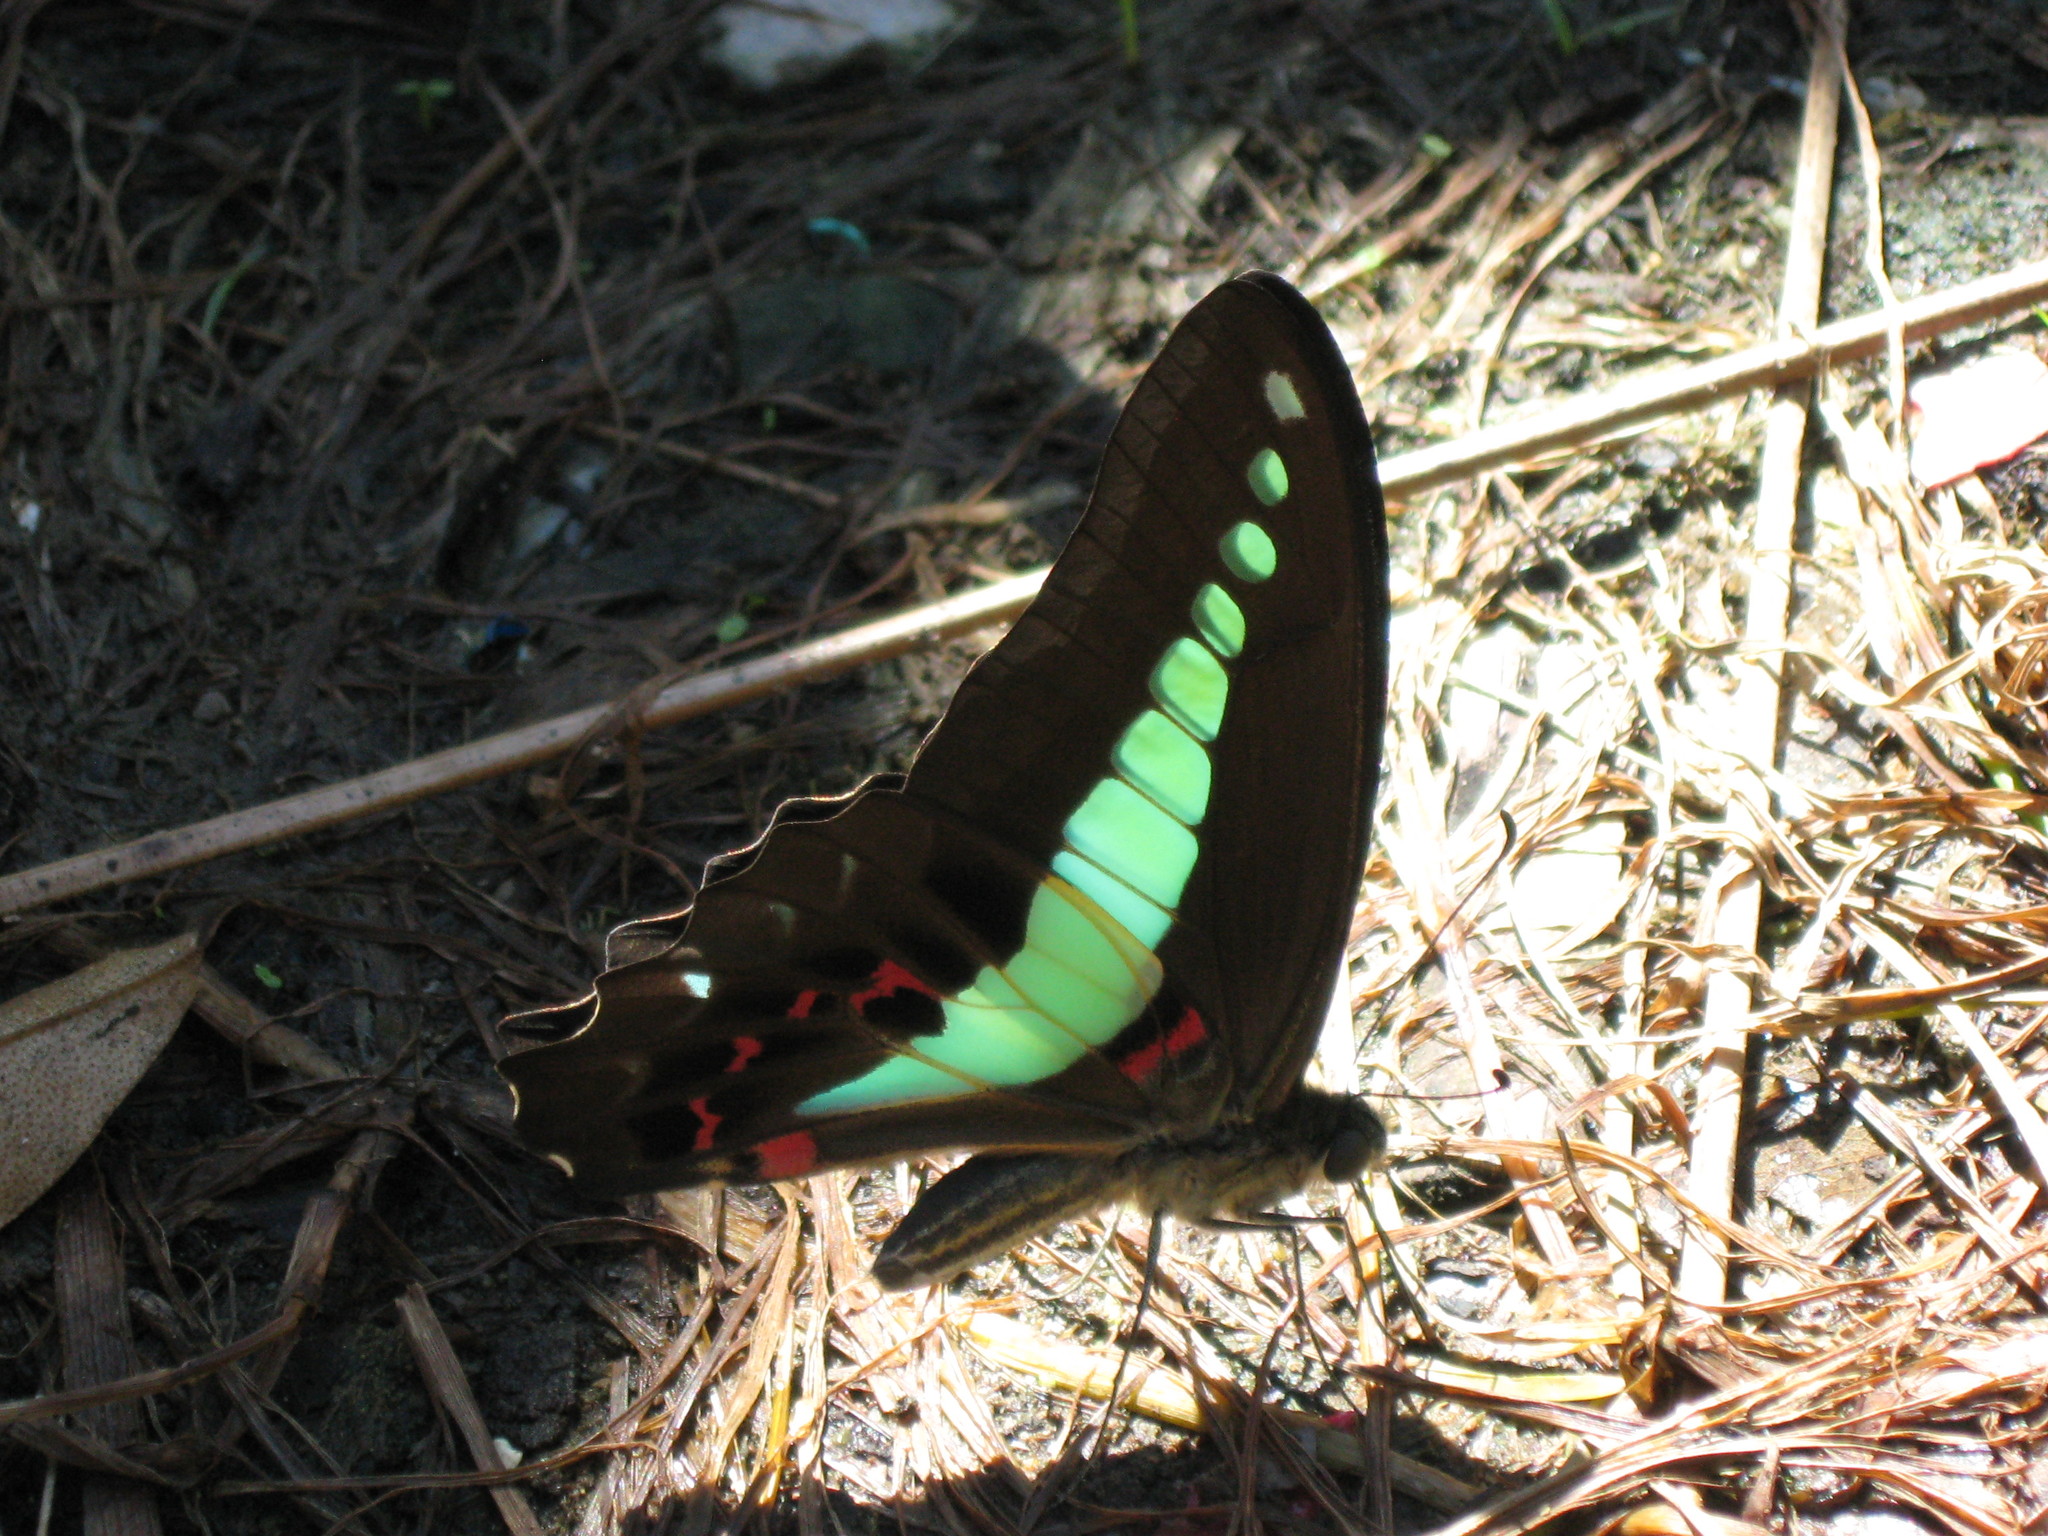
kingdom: Fungi
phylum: Ascomycota
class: Sordariomycetes
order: Microascales
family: Microascaceae
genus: Graphium
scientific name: Graphium sarpedon
